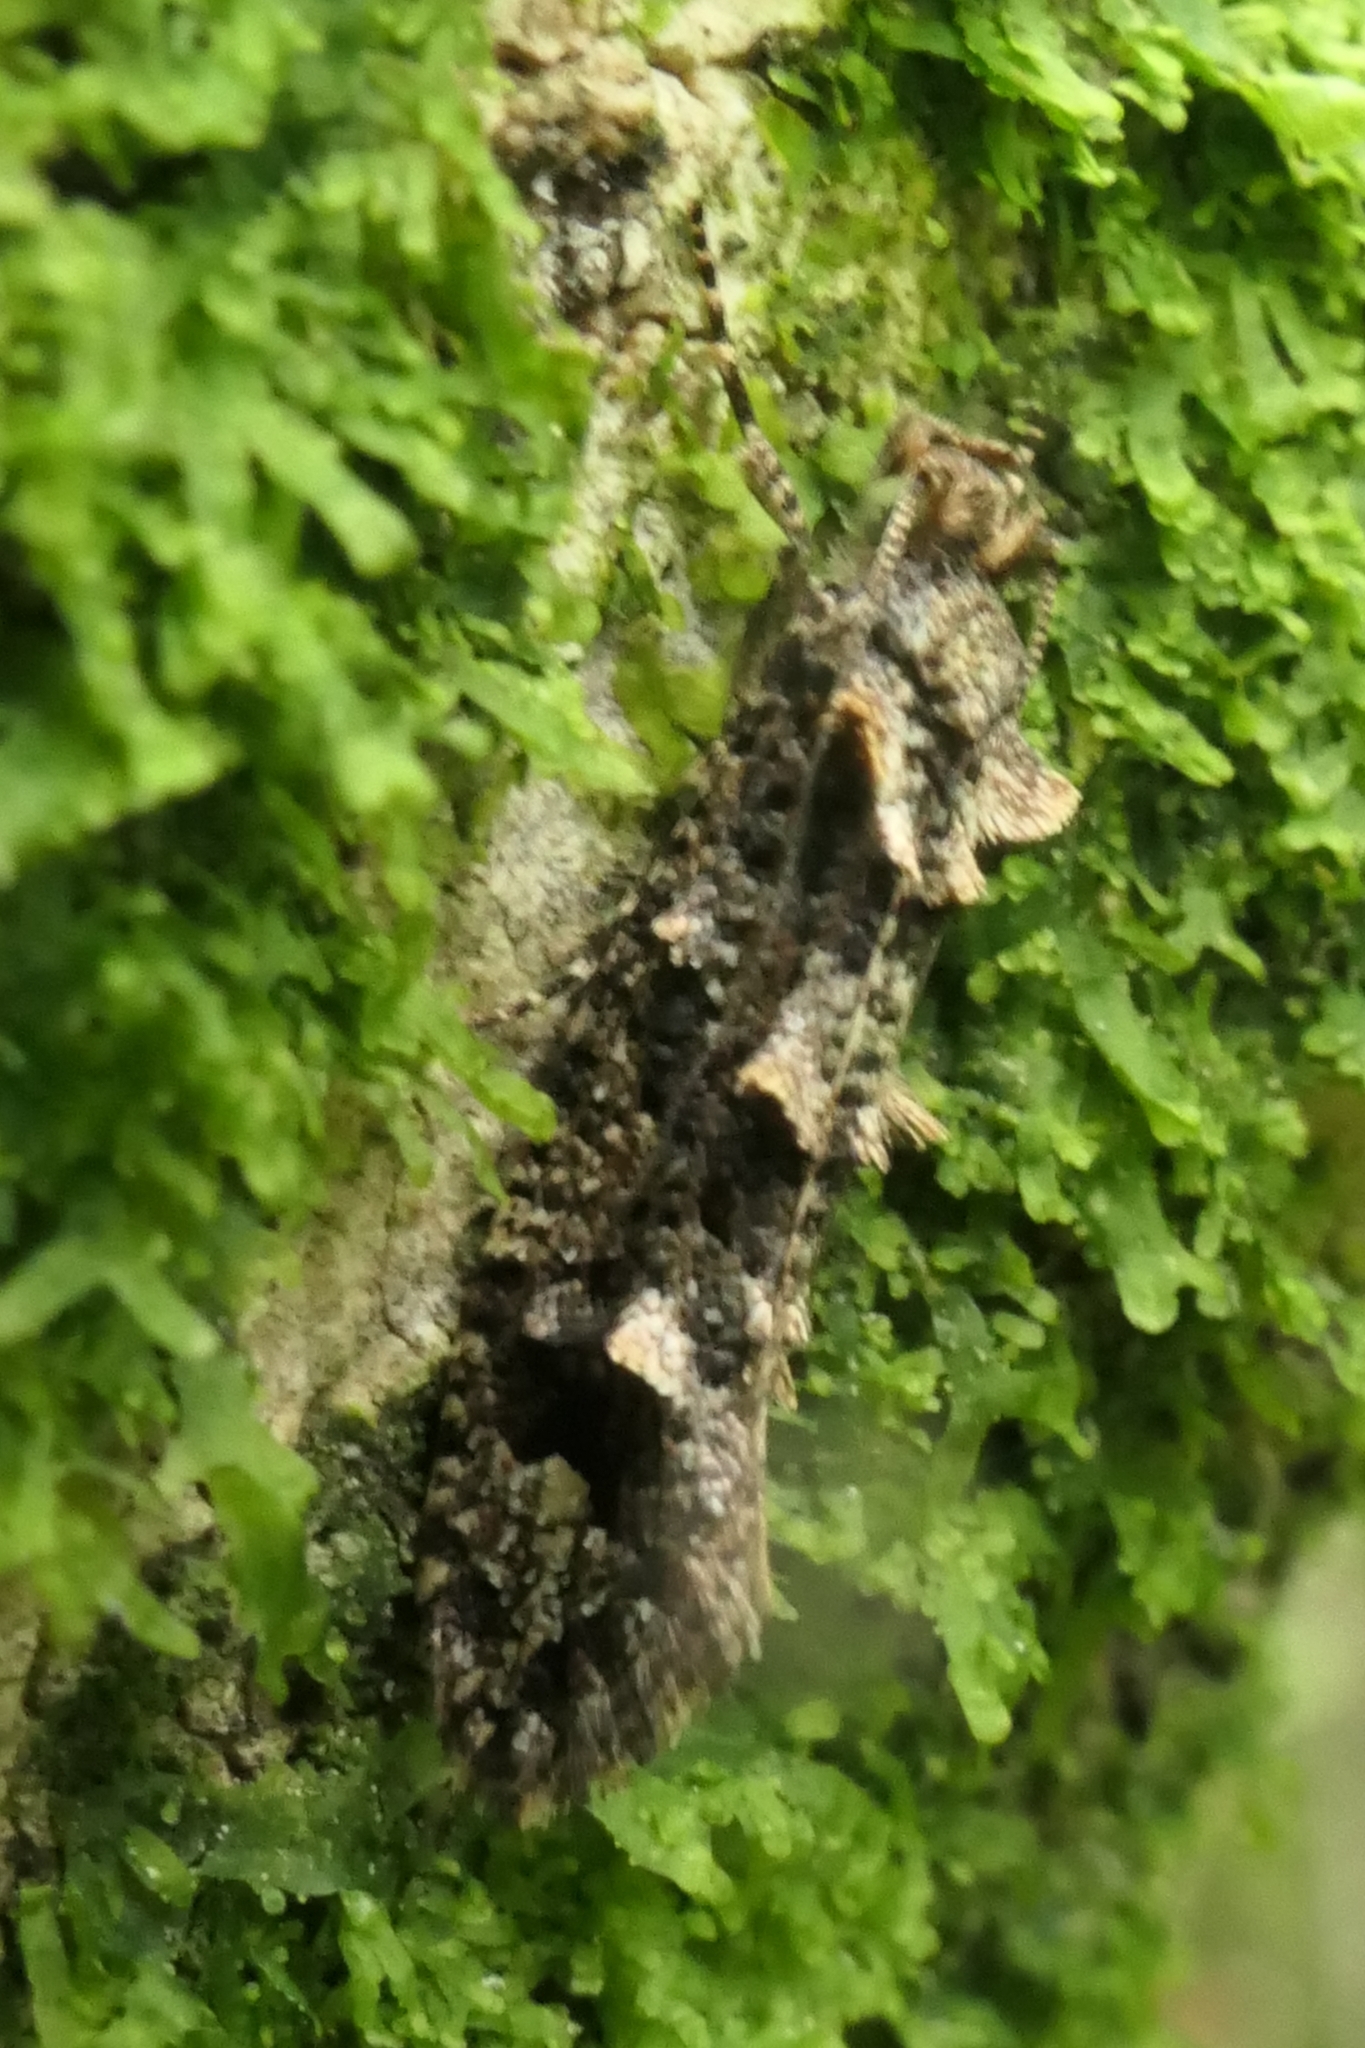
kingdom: Animalia
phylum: Arthropoda
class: Insecta
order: Lepidoptera
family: Tineidae
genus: Lysiphragma
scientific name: Lysiphragma epixyla
